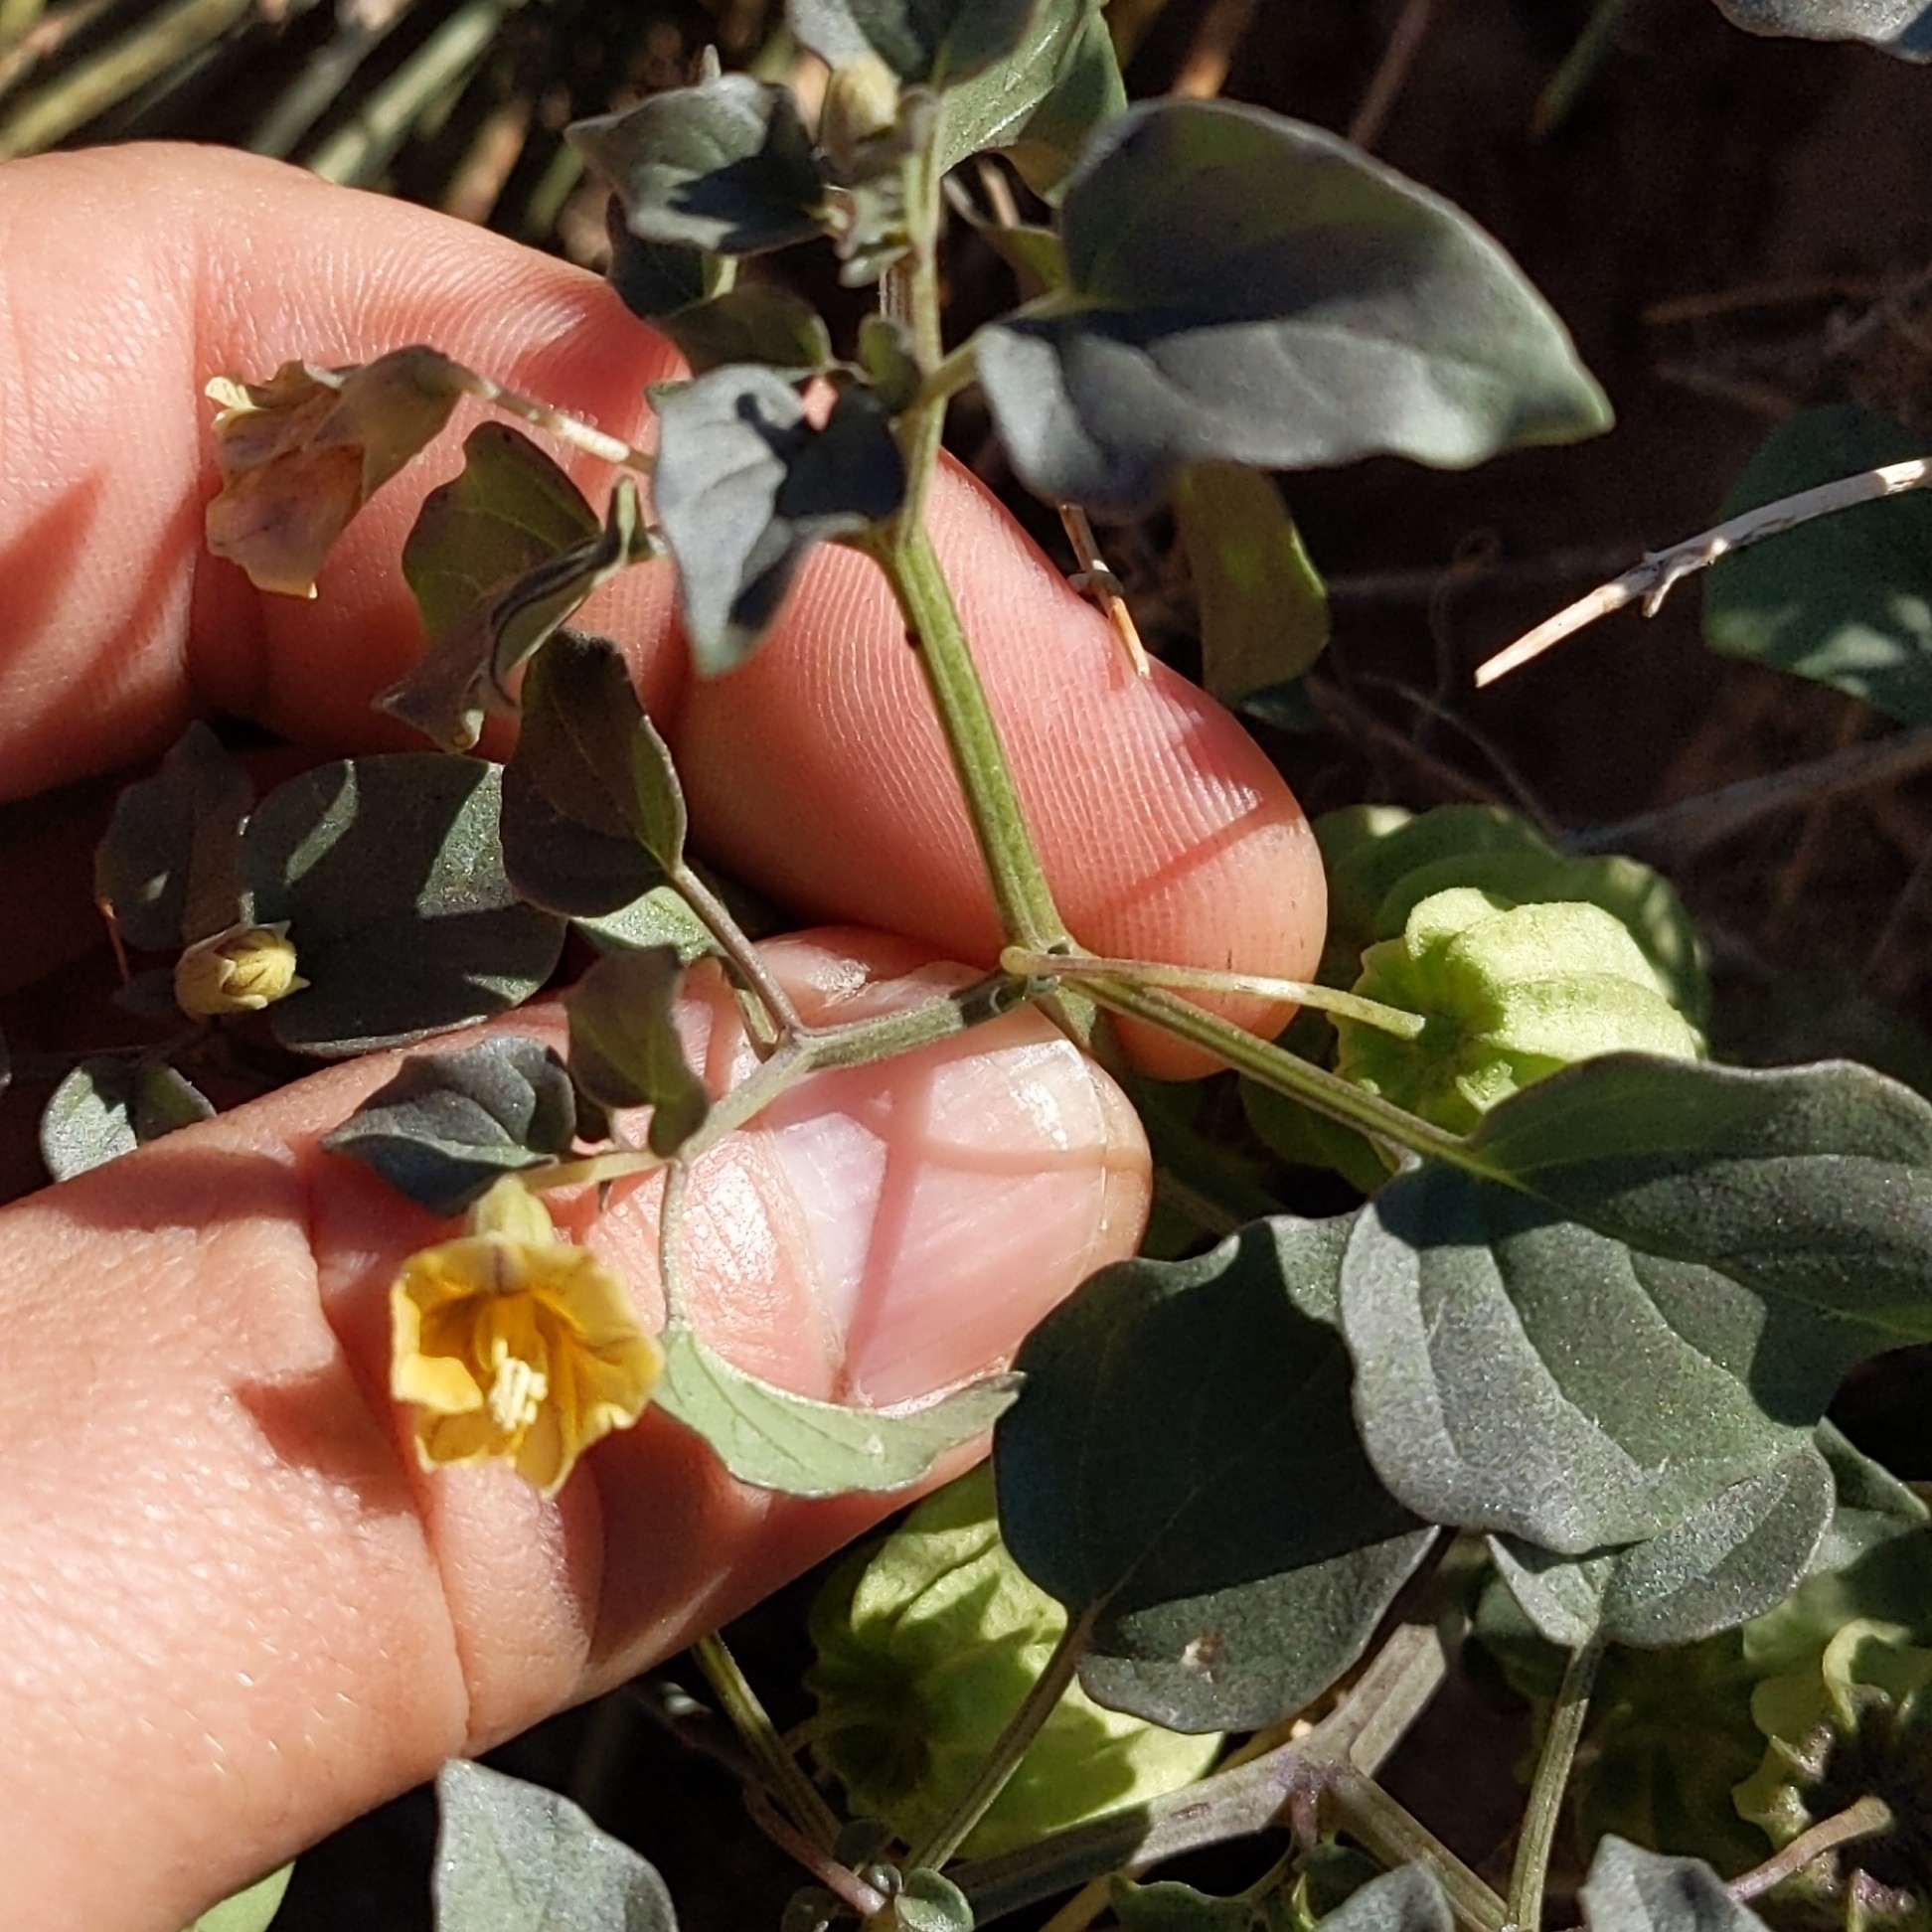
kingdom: Plantae
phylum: Tracheophyta
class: Magnoliopsida
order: Solanales
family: Solanaceae
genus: Physalis
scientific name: Physalis crassifolia
